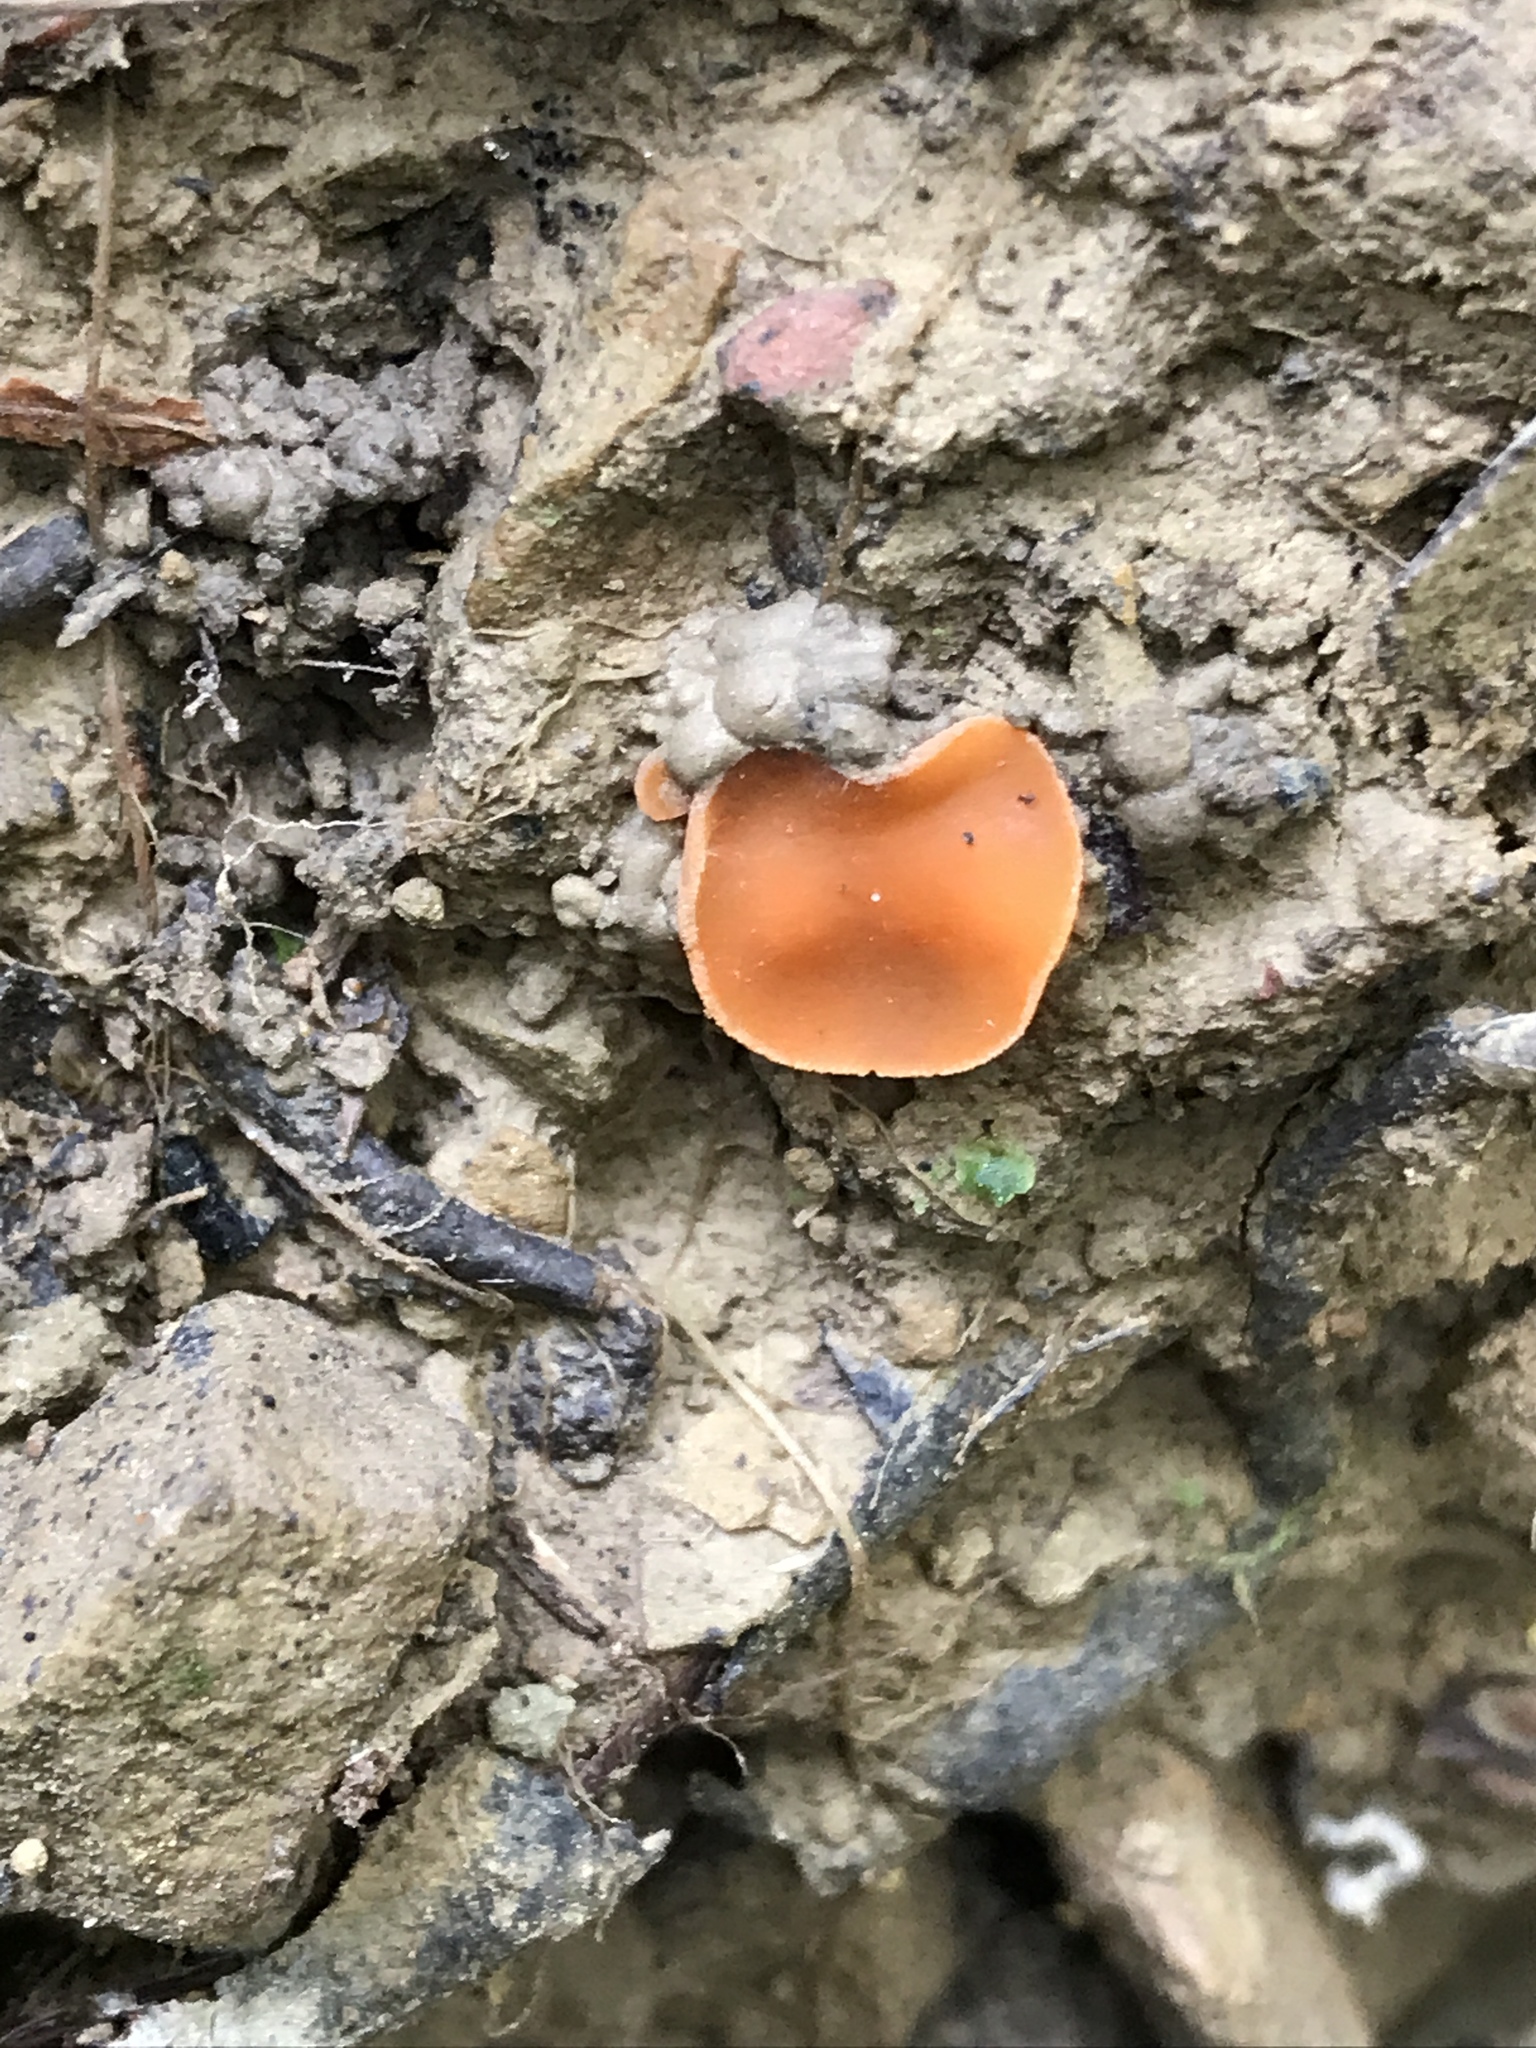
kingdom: Fungi
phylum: Ascomycota
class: Pezizomycetes
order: Pezizales
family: Pyronemataceae
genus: Aleuria
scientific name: Aleuria aurantia
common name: Orange peel fungus
